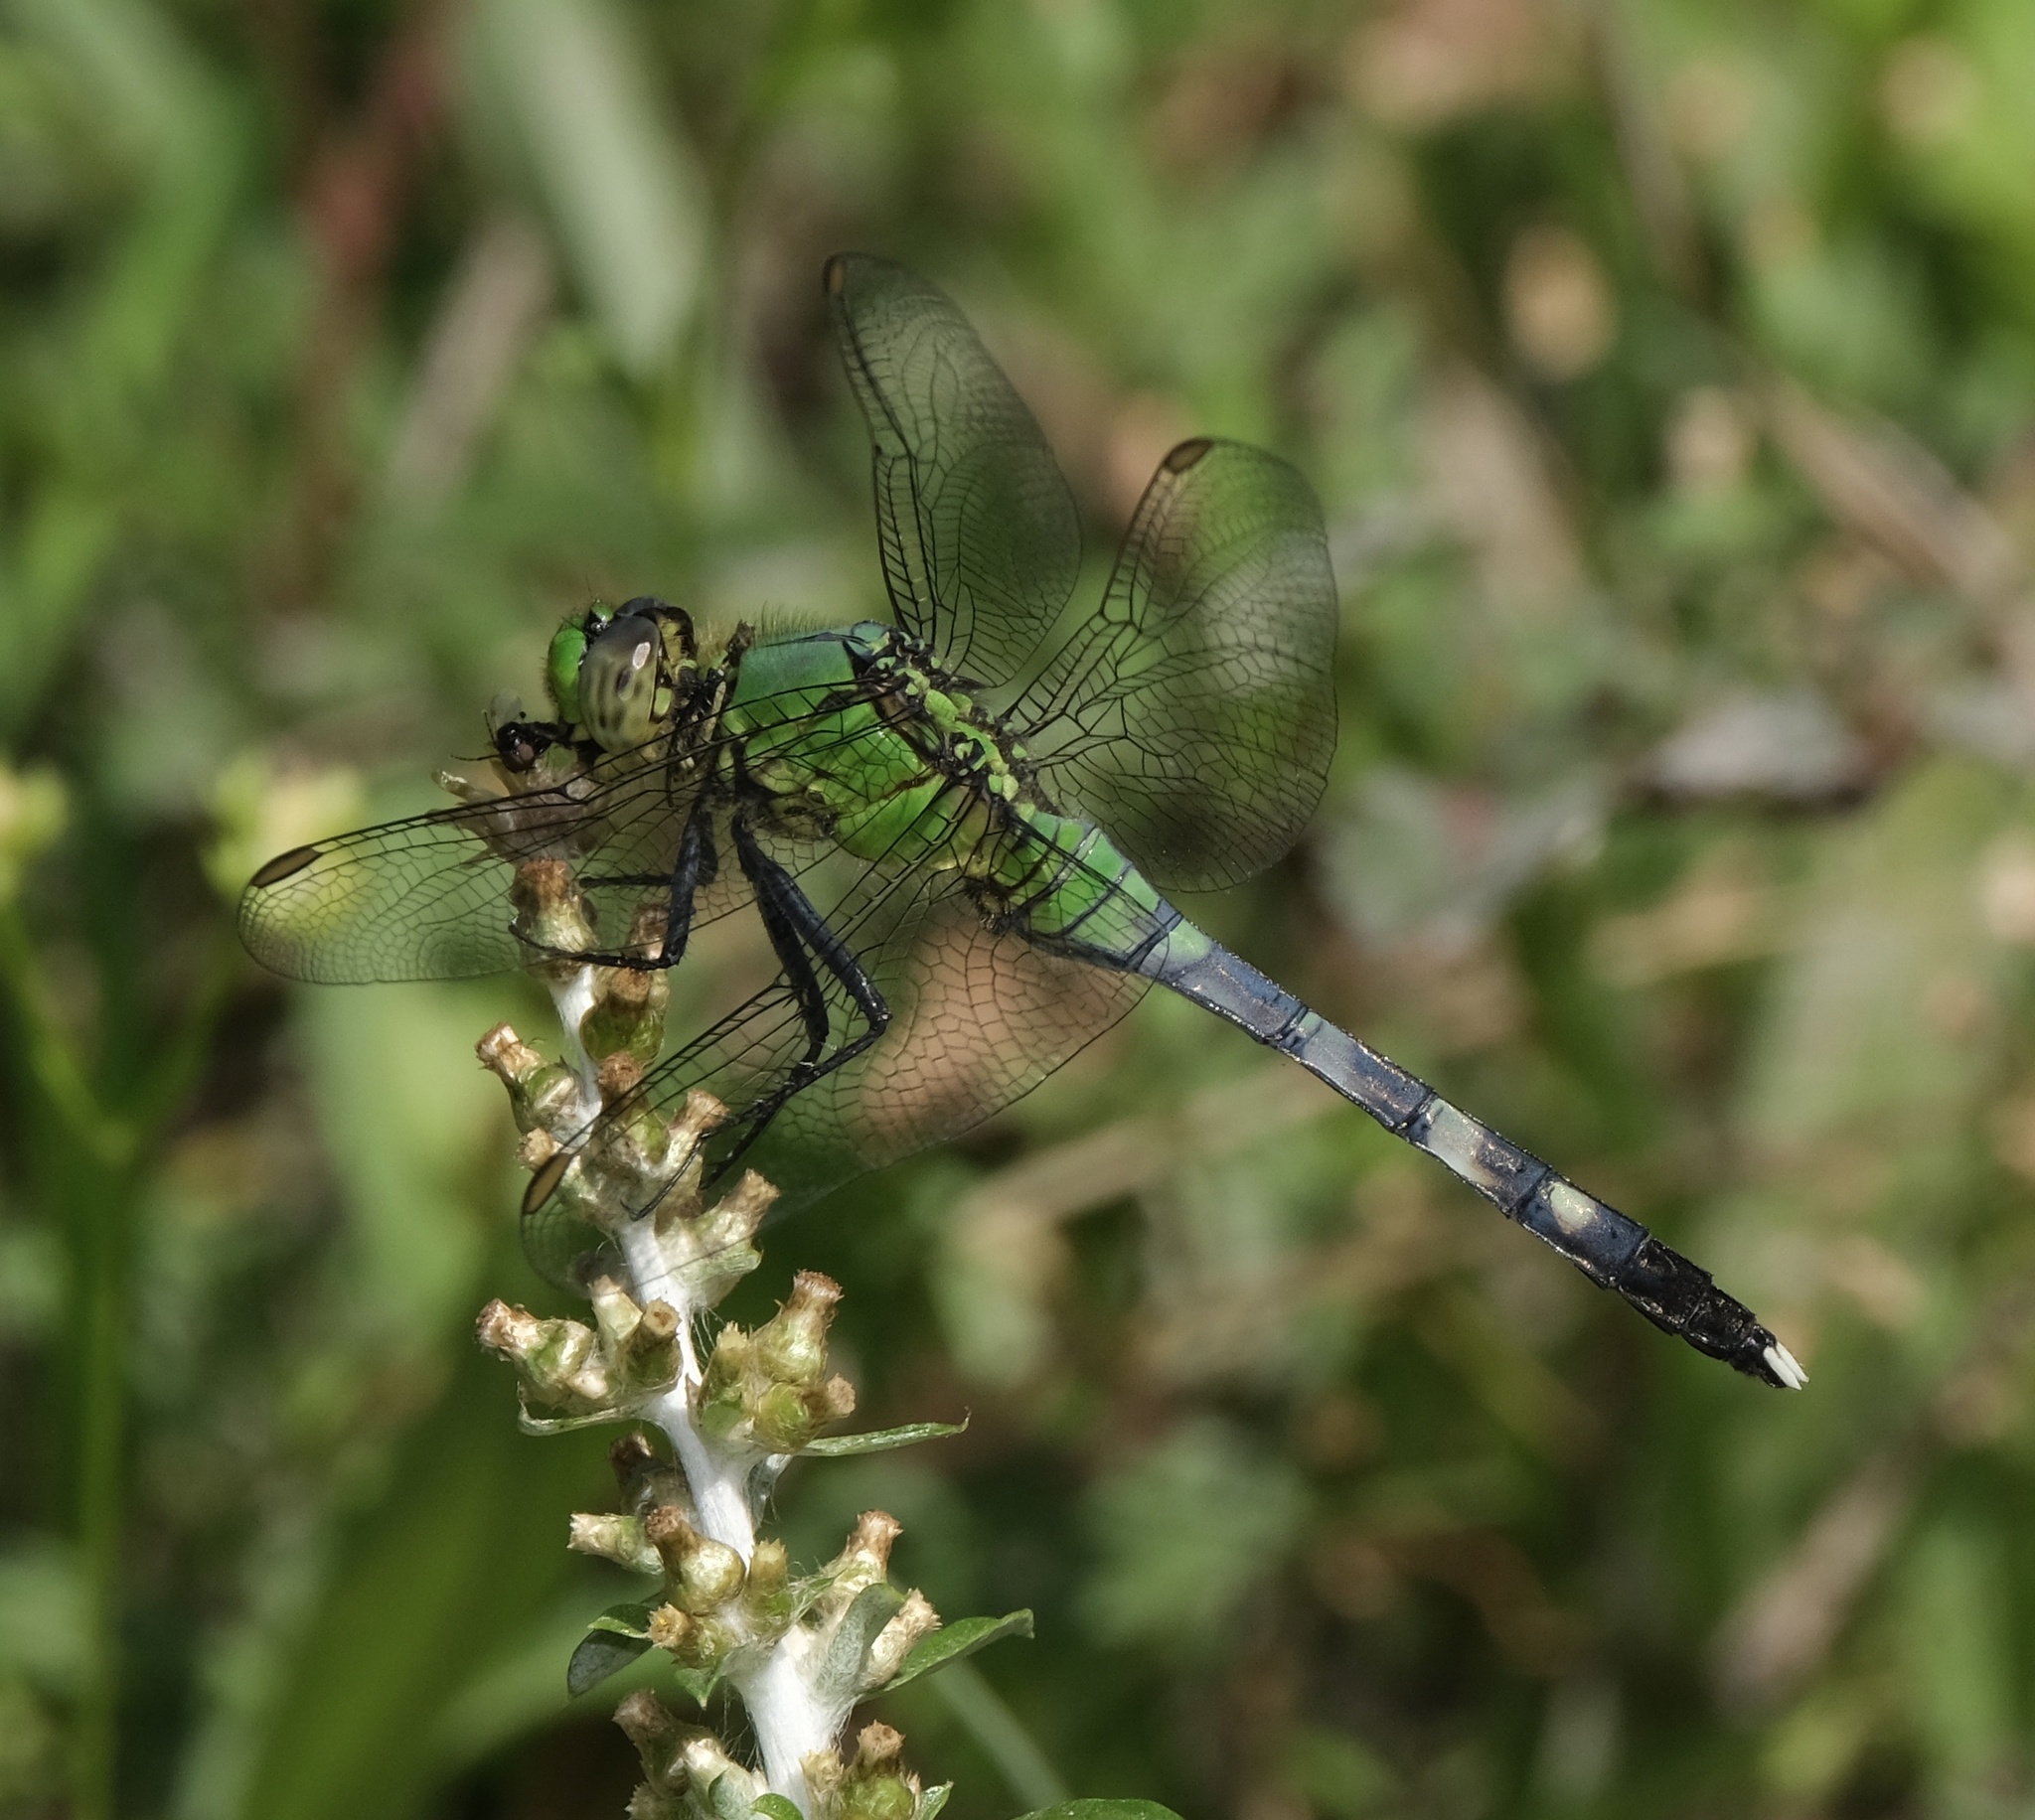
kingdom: Animalia
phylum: Arthropoda
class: Insecta
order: Odonata
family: Libellulidae
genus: Erythemis
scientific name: Erythemis simplicicollis
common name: Eastern pondhawk
